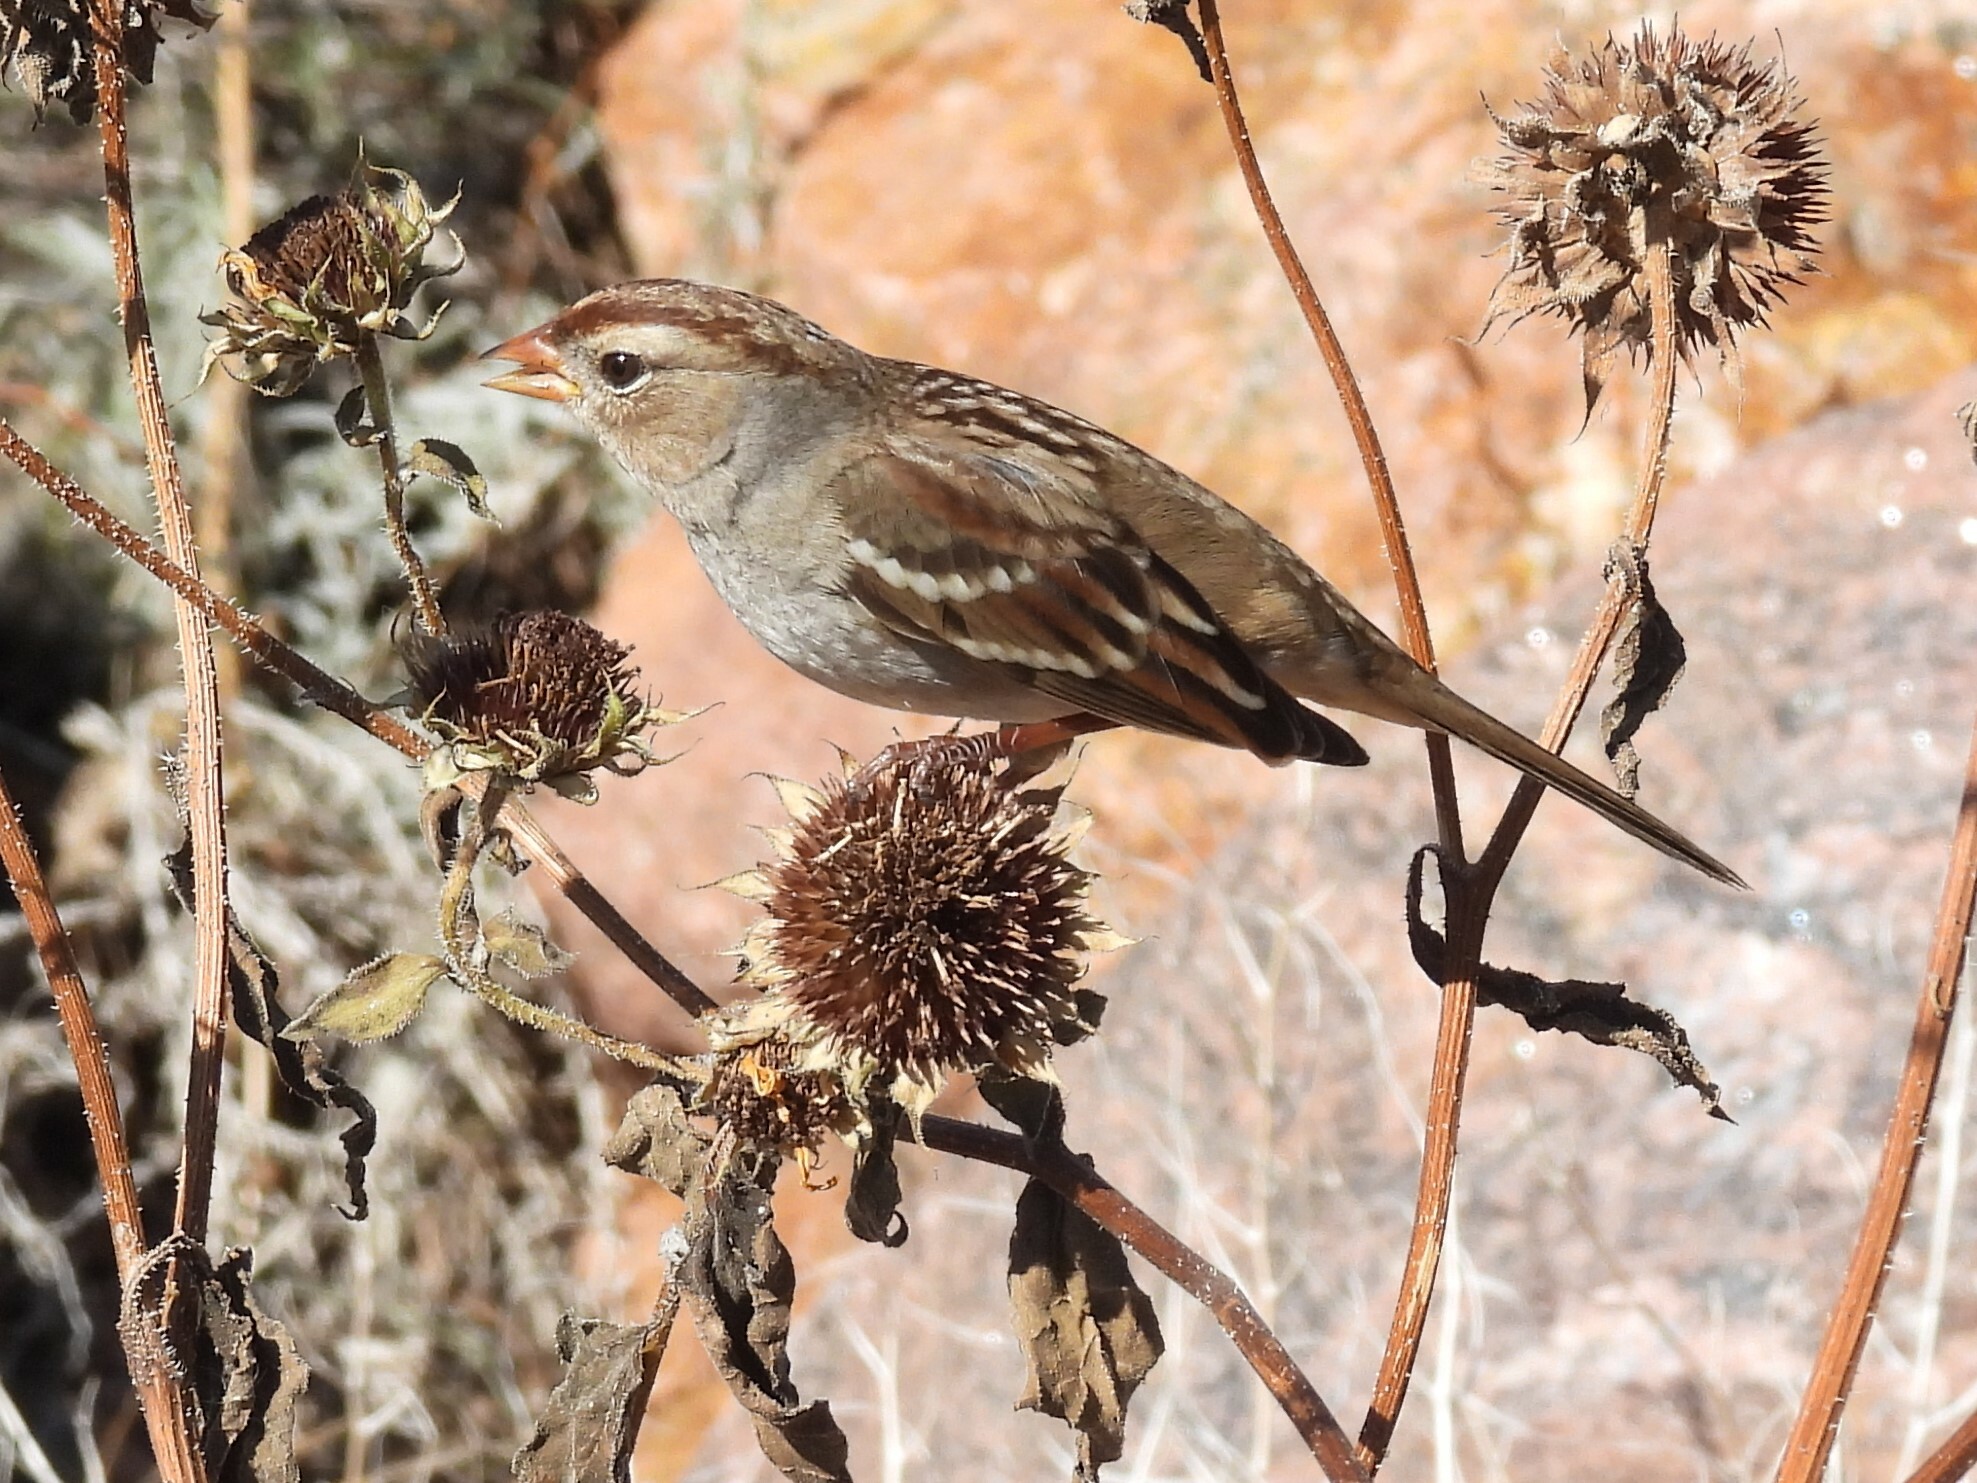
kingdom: Animalia
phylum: Chordata
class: Aves
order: Passeriformes
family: Passerellidae
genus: Zonotrichia
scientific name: Zonotrichia leucophrys
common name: White-crowned sparrow
